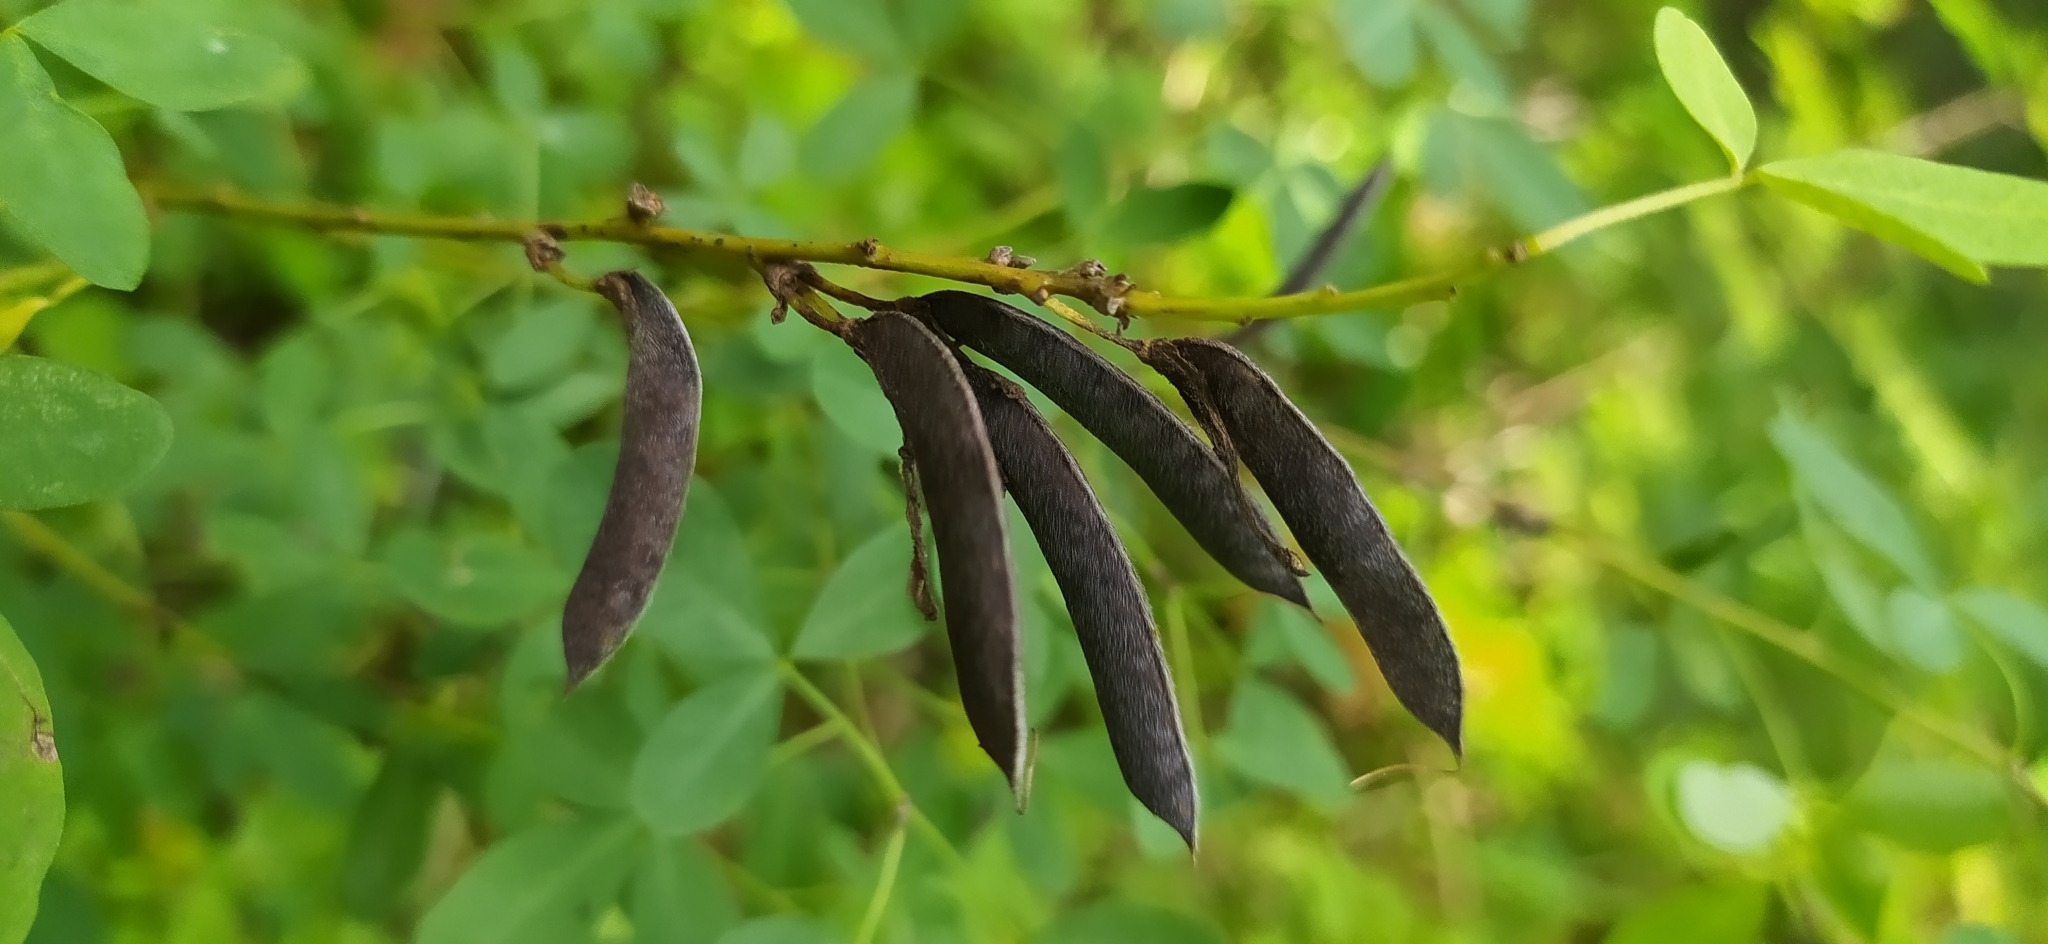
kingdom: Plantae
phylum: Tracheophyta
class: Magnoliopsida
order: Fabales
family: Fabaceae
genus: Chamaecytisus
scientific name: Chamaecytisus ruthenicus
